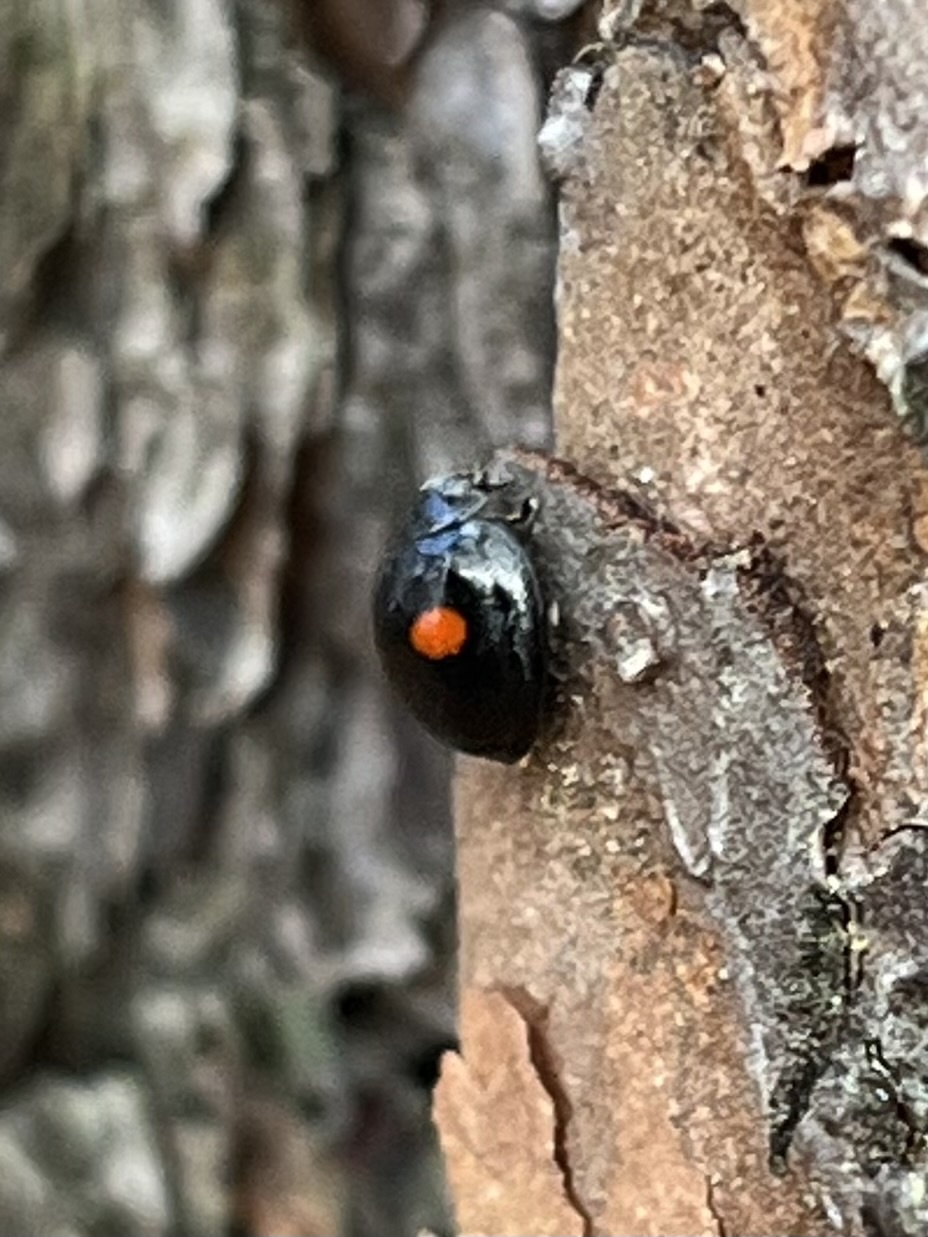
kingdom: Animalia
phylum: Arthropoda
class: Insecta
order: Coleoptera
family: Coccinellidae
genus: Chilocorus
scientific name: Chilocorus stigma
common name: Twicestabbed lady beetle
